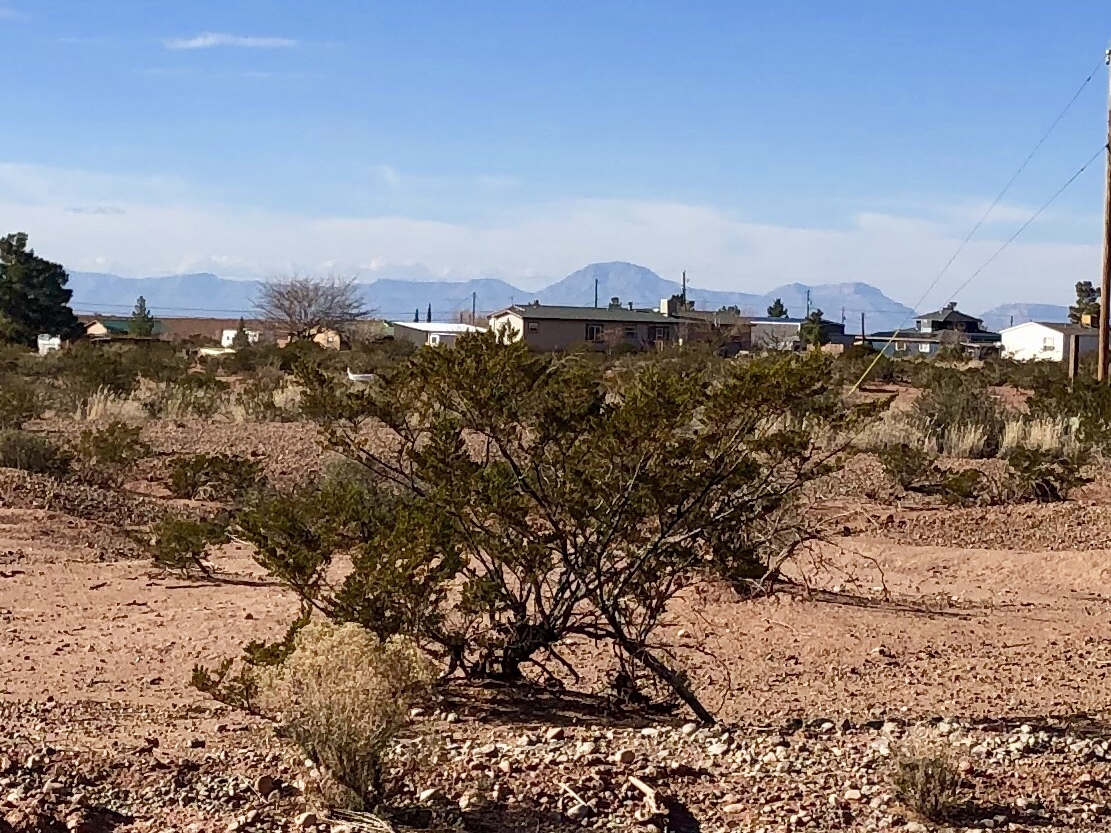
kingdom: Plantae
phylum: Tracheophyta
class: Magnoliopsida
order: Zygophyllales
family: Zygophyllaceae
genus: Larrea
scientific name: Larrea tridentata
